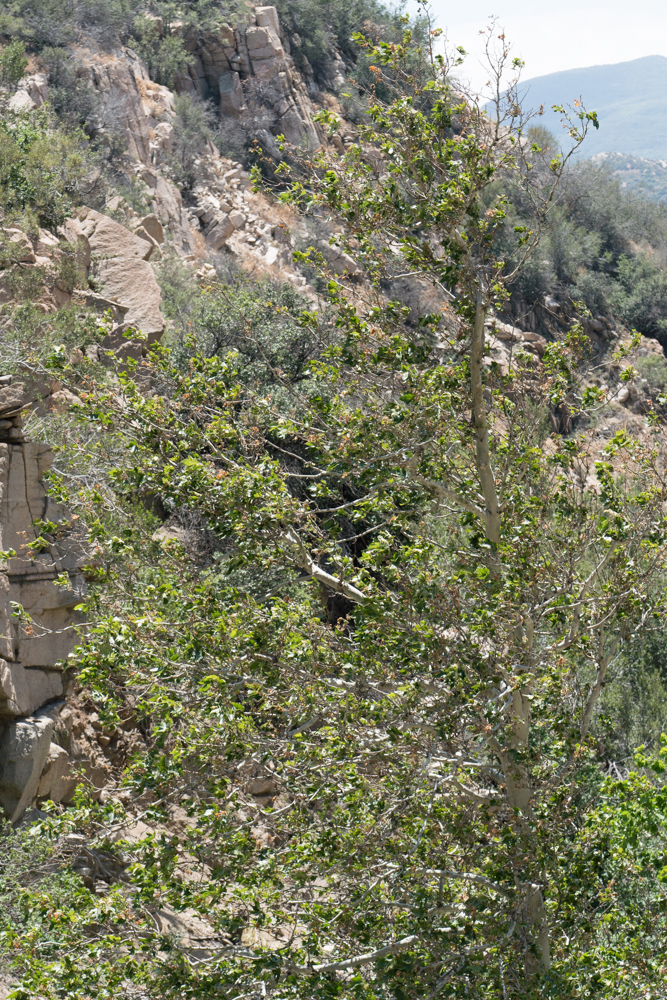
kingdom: Plantae
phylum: Tracheophyta
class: Magnoliopsida
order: Proteales
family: Platanaceae
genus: Platanus
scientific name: Platanus racemosa
